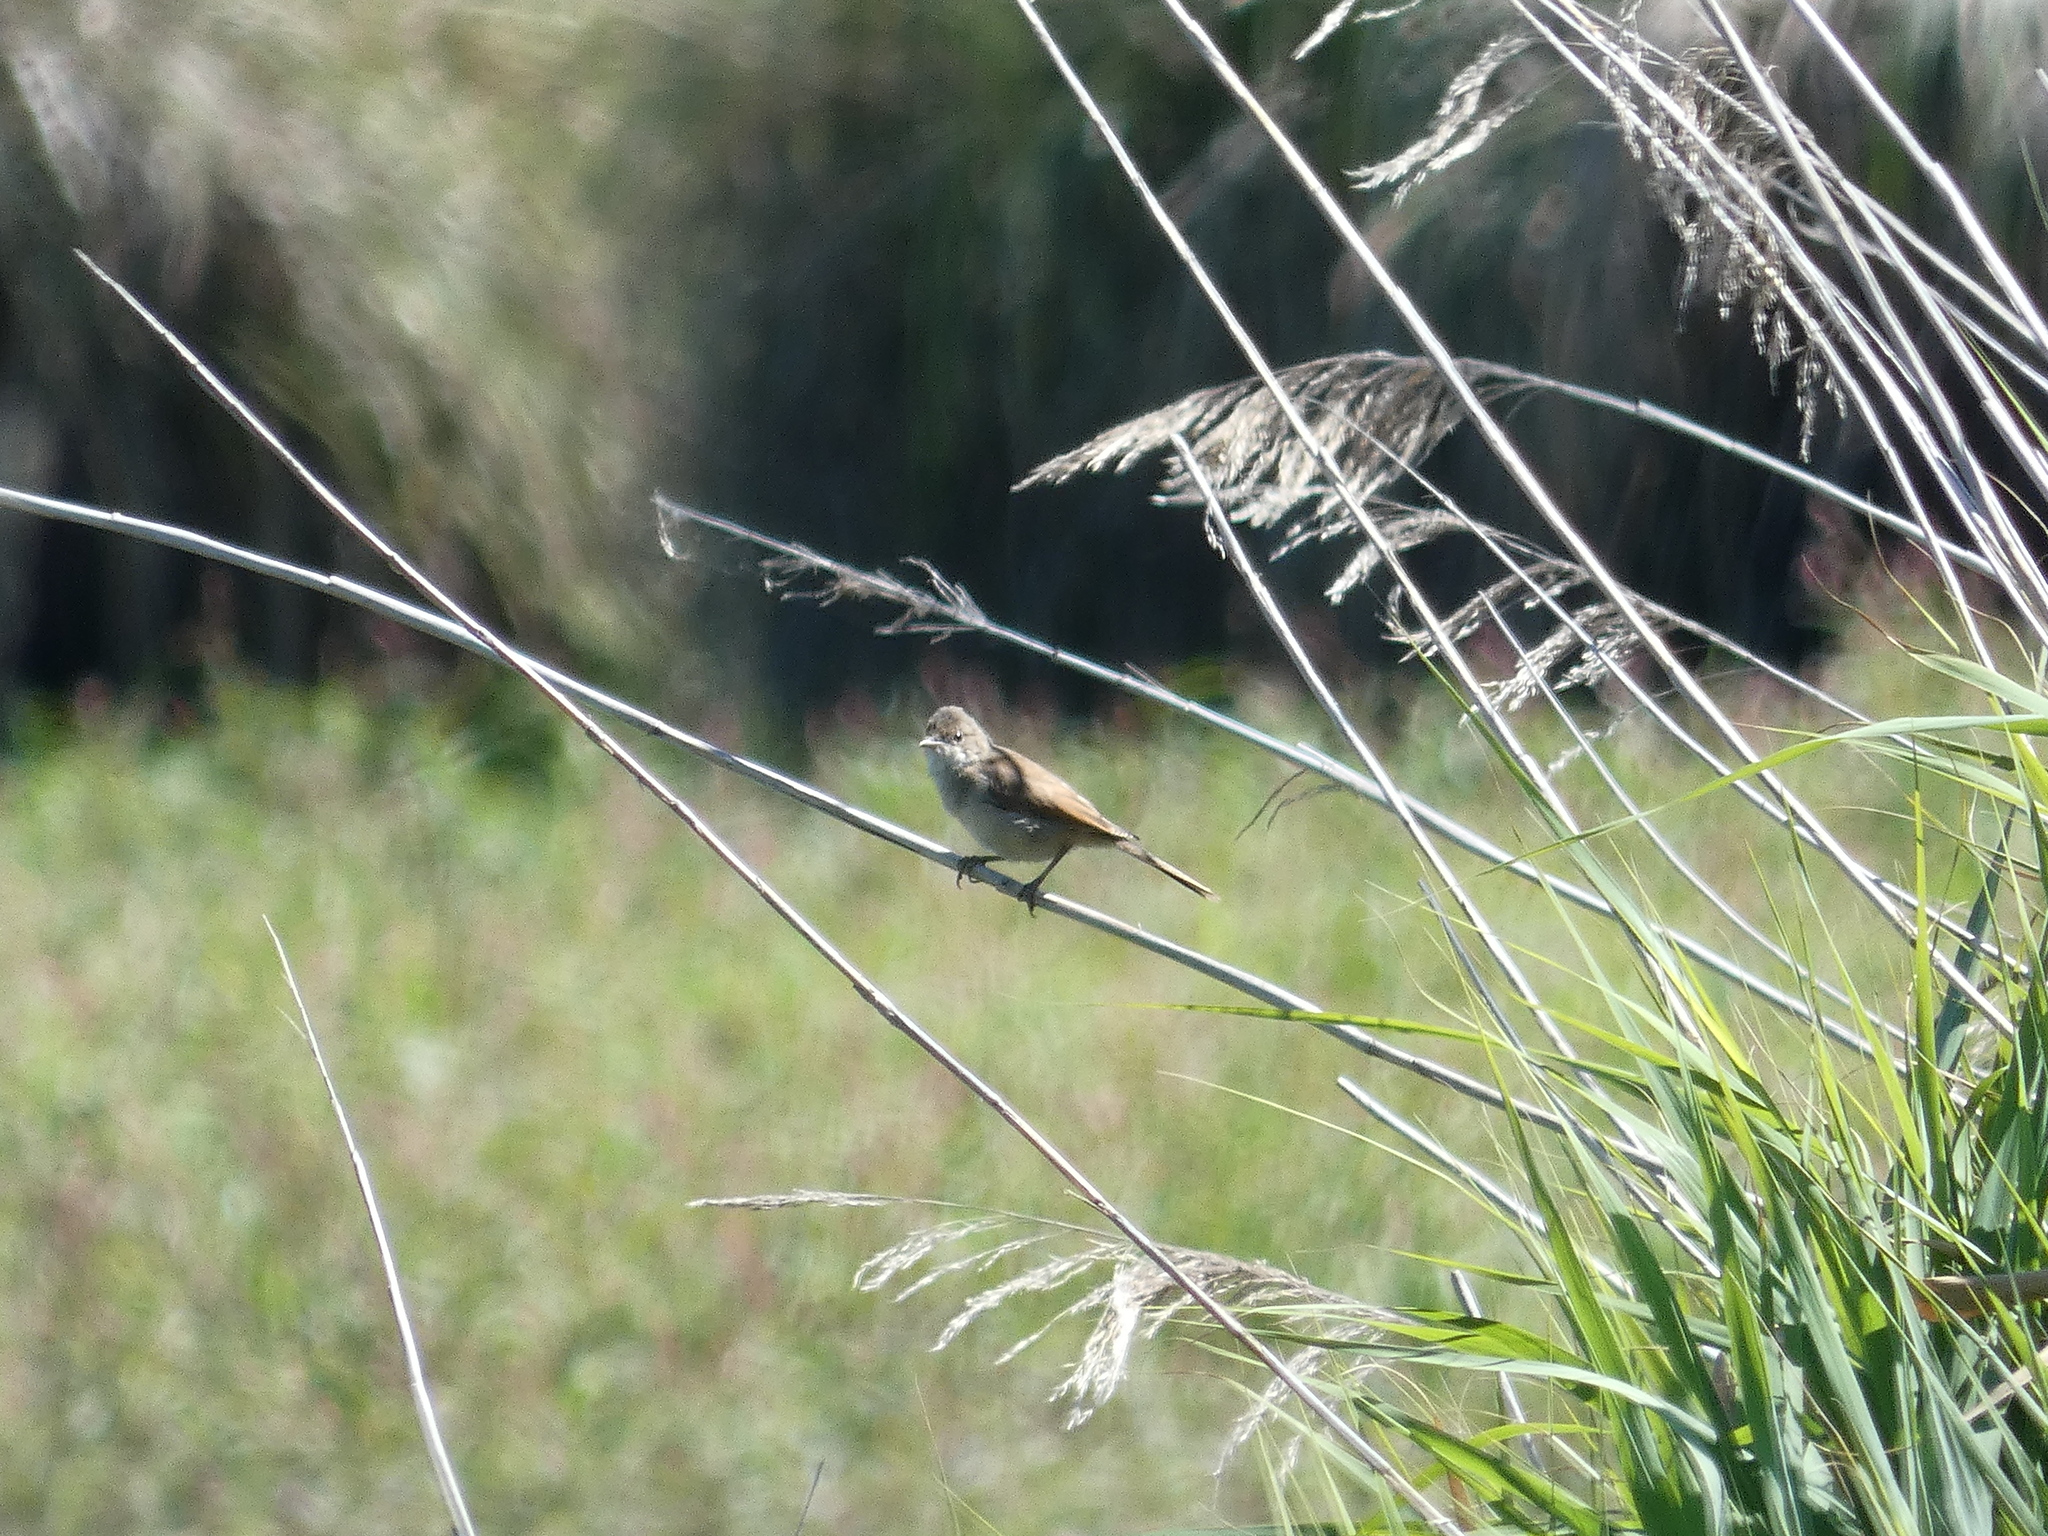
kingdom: Animalia
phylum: Chordata
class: Aves
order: Passeriformes
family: Sylviidae
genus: Sylvia
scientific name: Sylvia communis
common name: Common whitethroat
